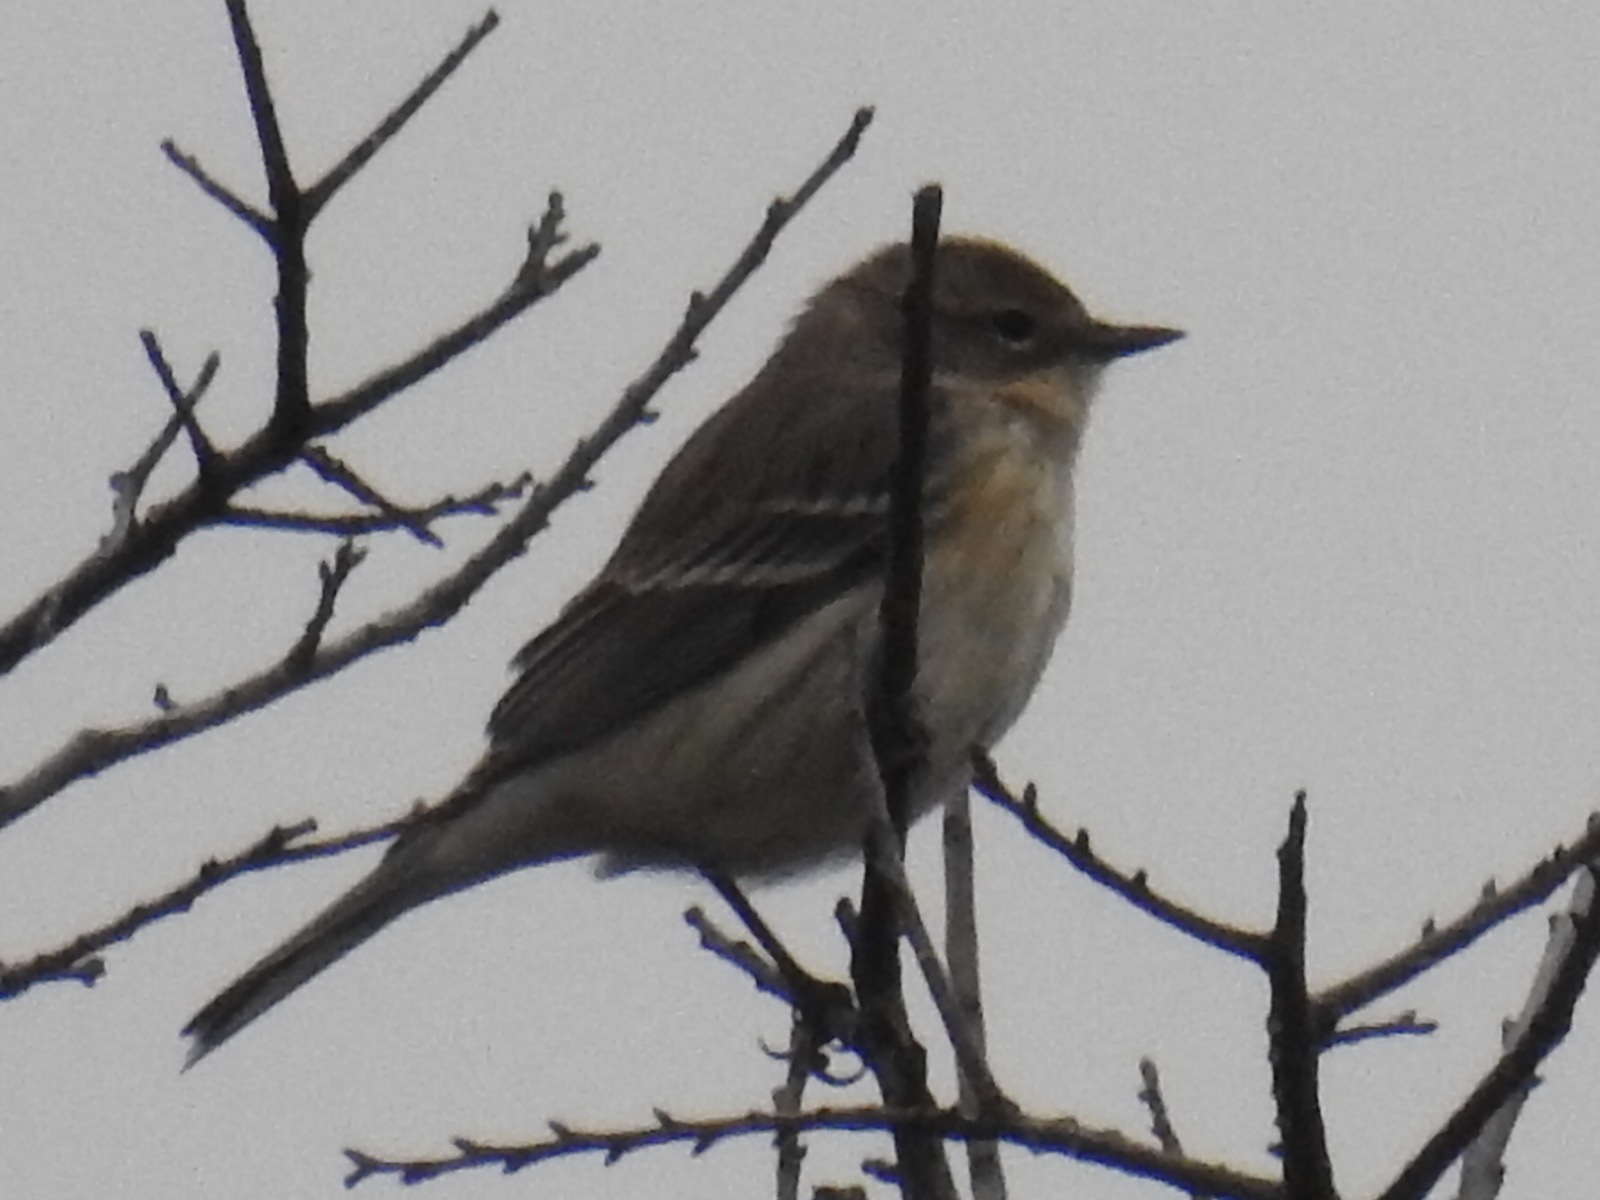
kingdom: Animalia
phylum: Chordata
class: Aves
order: Passeriformes
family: Parulidae
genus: Setophaga
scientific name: Setophaga coronata
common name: Myrtle warbler
